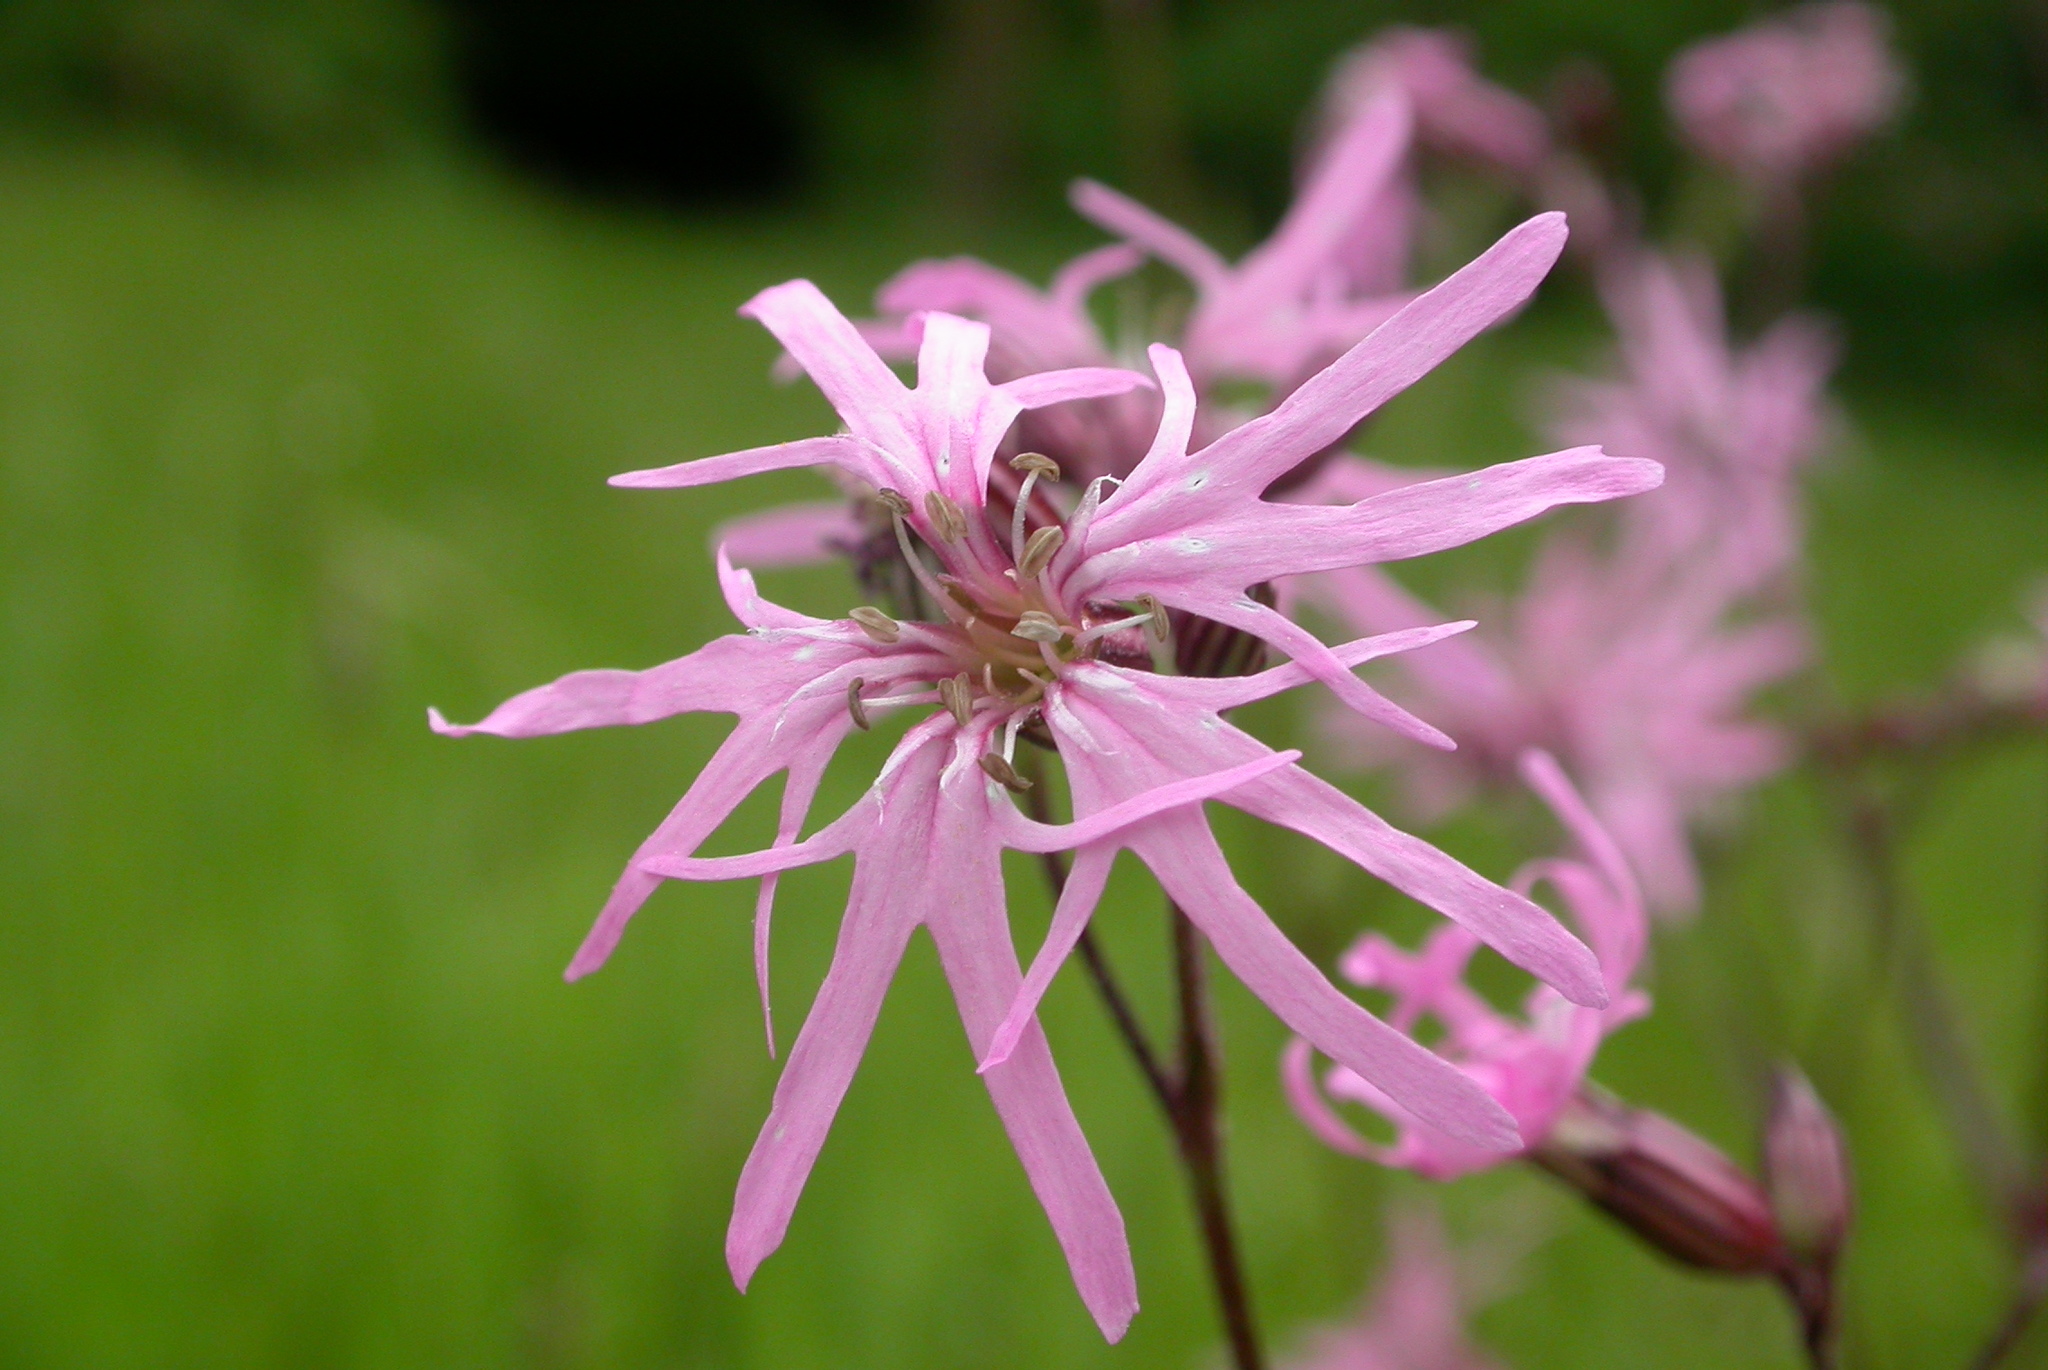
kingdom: Plantae
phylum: Tracheophyta
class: Magnoliopsida
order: Caryophyllales
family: Caryophyllaceae
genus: Silene
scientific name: Silene flos-cuculi
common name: Ragged-robin
